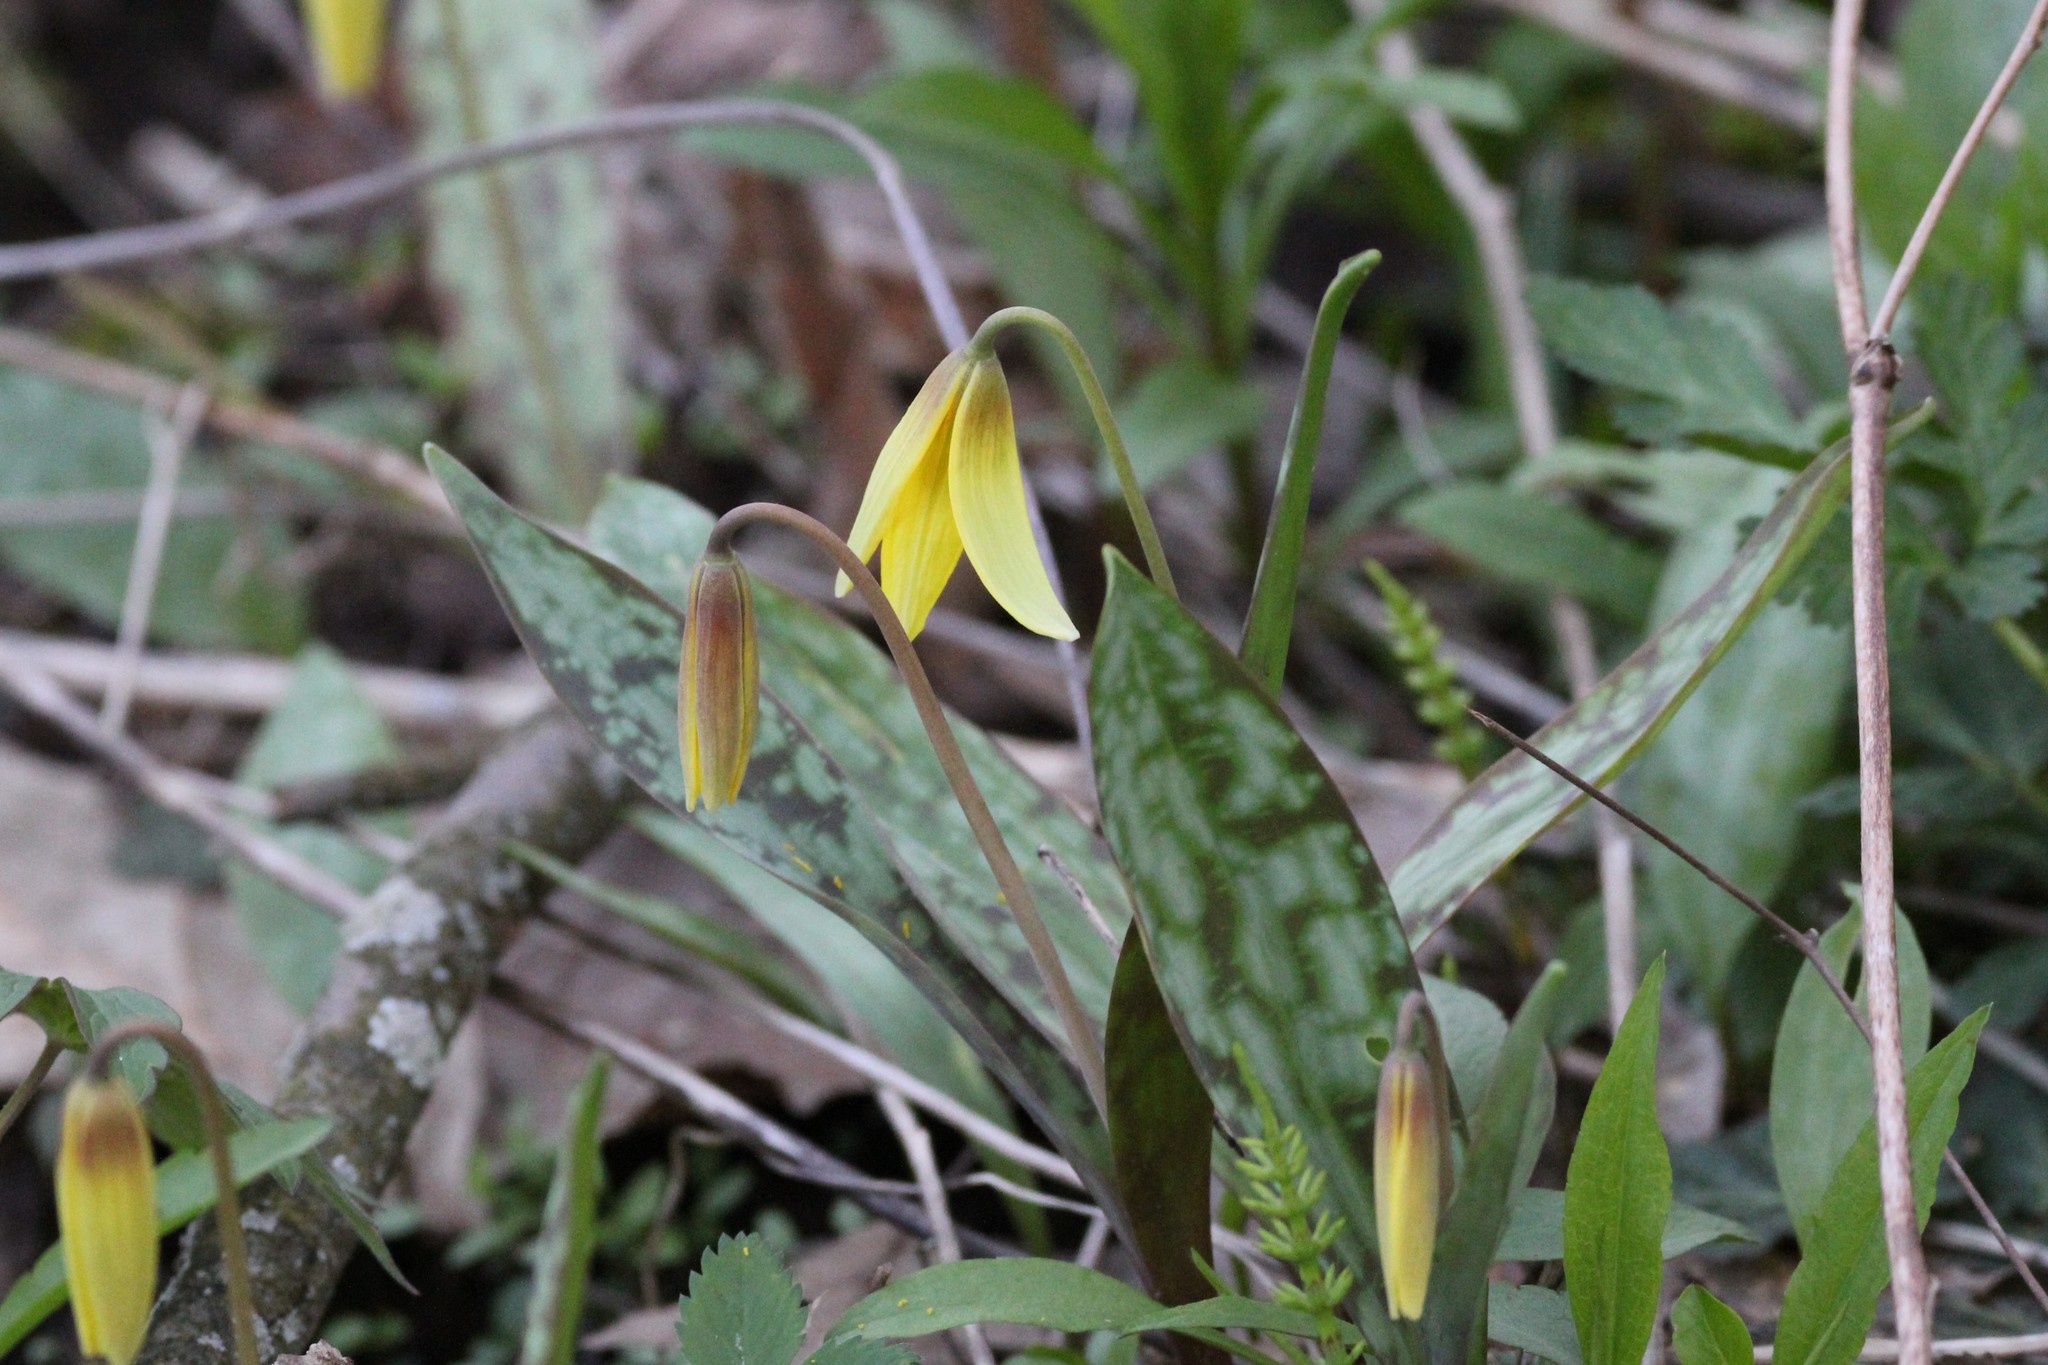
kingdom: Plantae
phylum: Tracheophyta
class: Liliopsida
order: Liliales
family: Liliaceae
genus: Erythronium
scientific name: Erythronium americanum
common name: Yellow adder's-tongue
